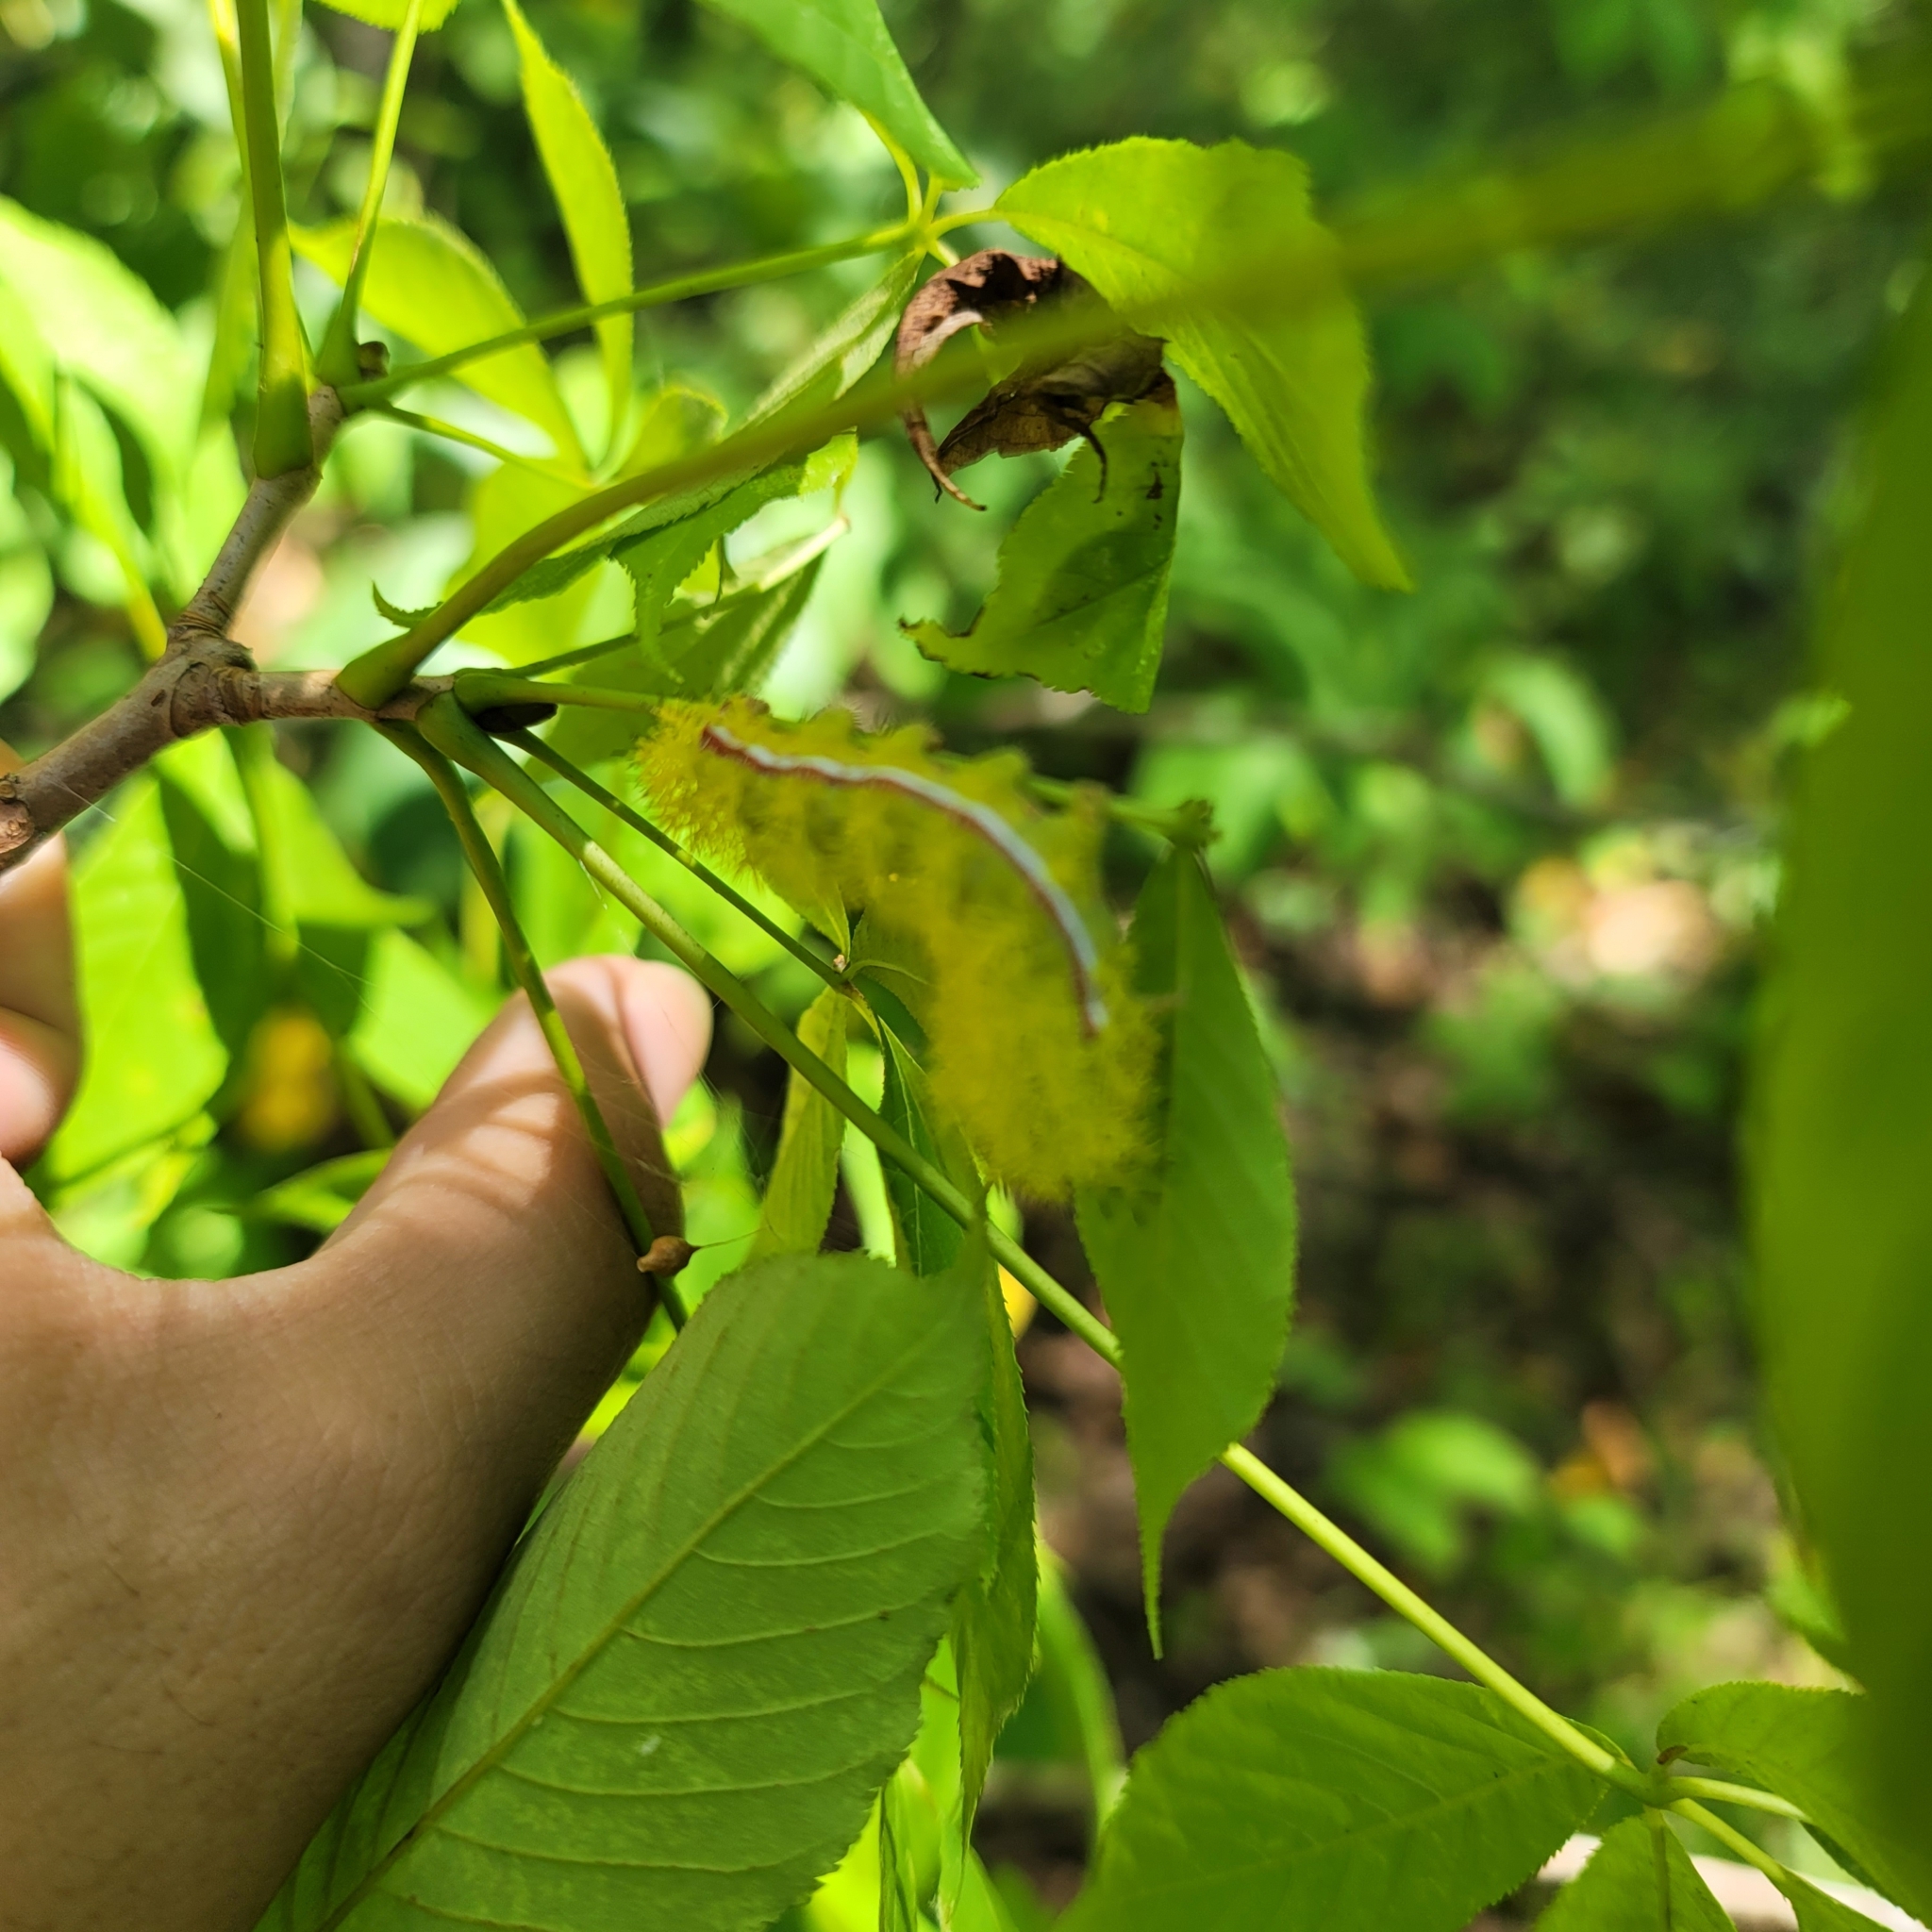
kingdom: Animalia
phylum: Arthropoda
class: Insecta
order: Lepidoptera
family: Saturniidae
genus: Automeris
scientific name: Automeris io
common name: Io moth
